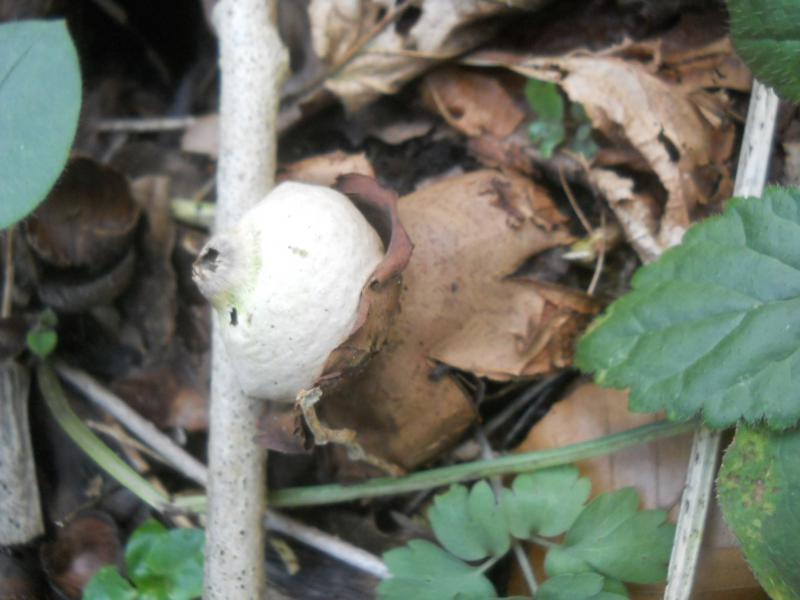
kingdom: Fungi
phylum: Basidiomycota
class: Agaricomycetes
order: Geastrales
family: Geastraceae
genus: Geastrum
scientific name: Geastrum triplex
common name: Collared earthstar
